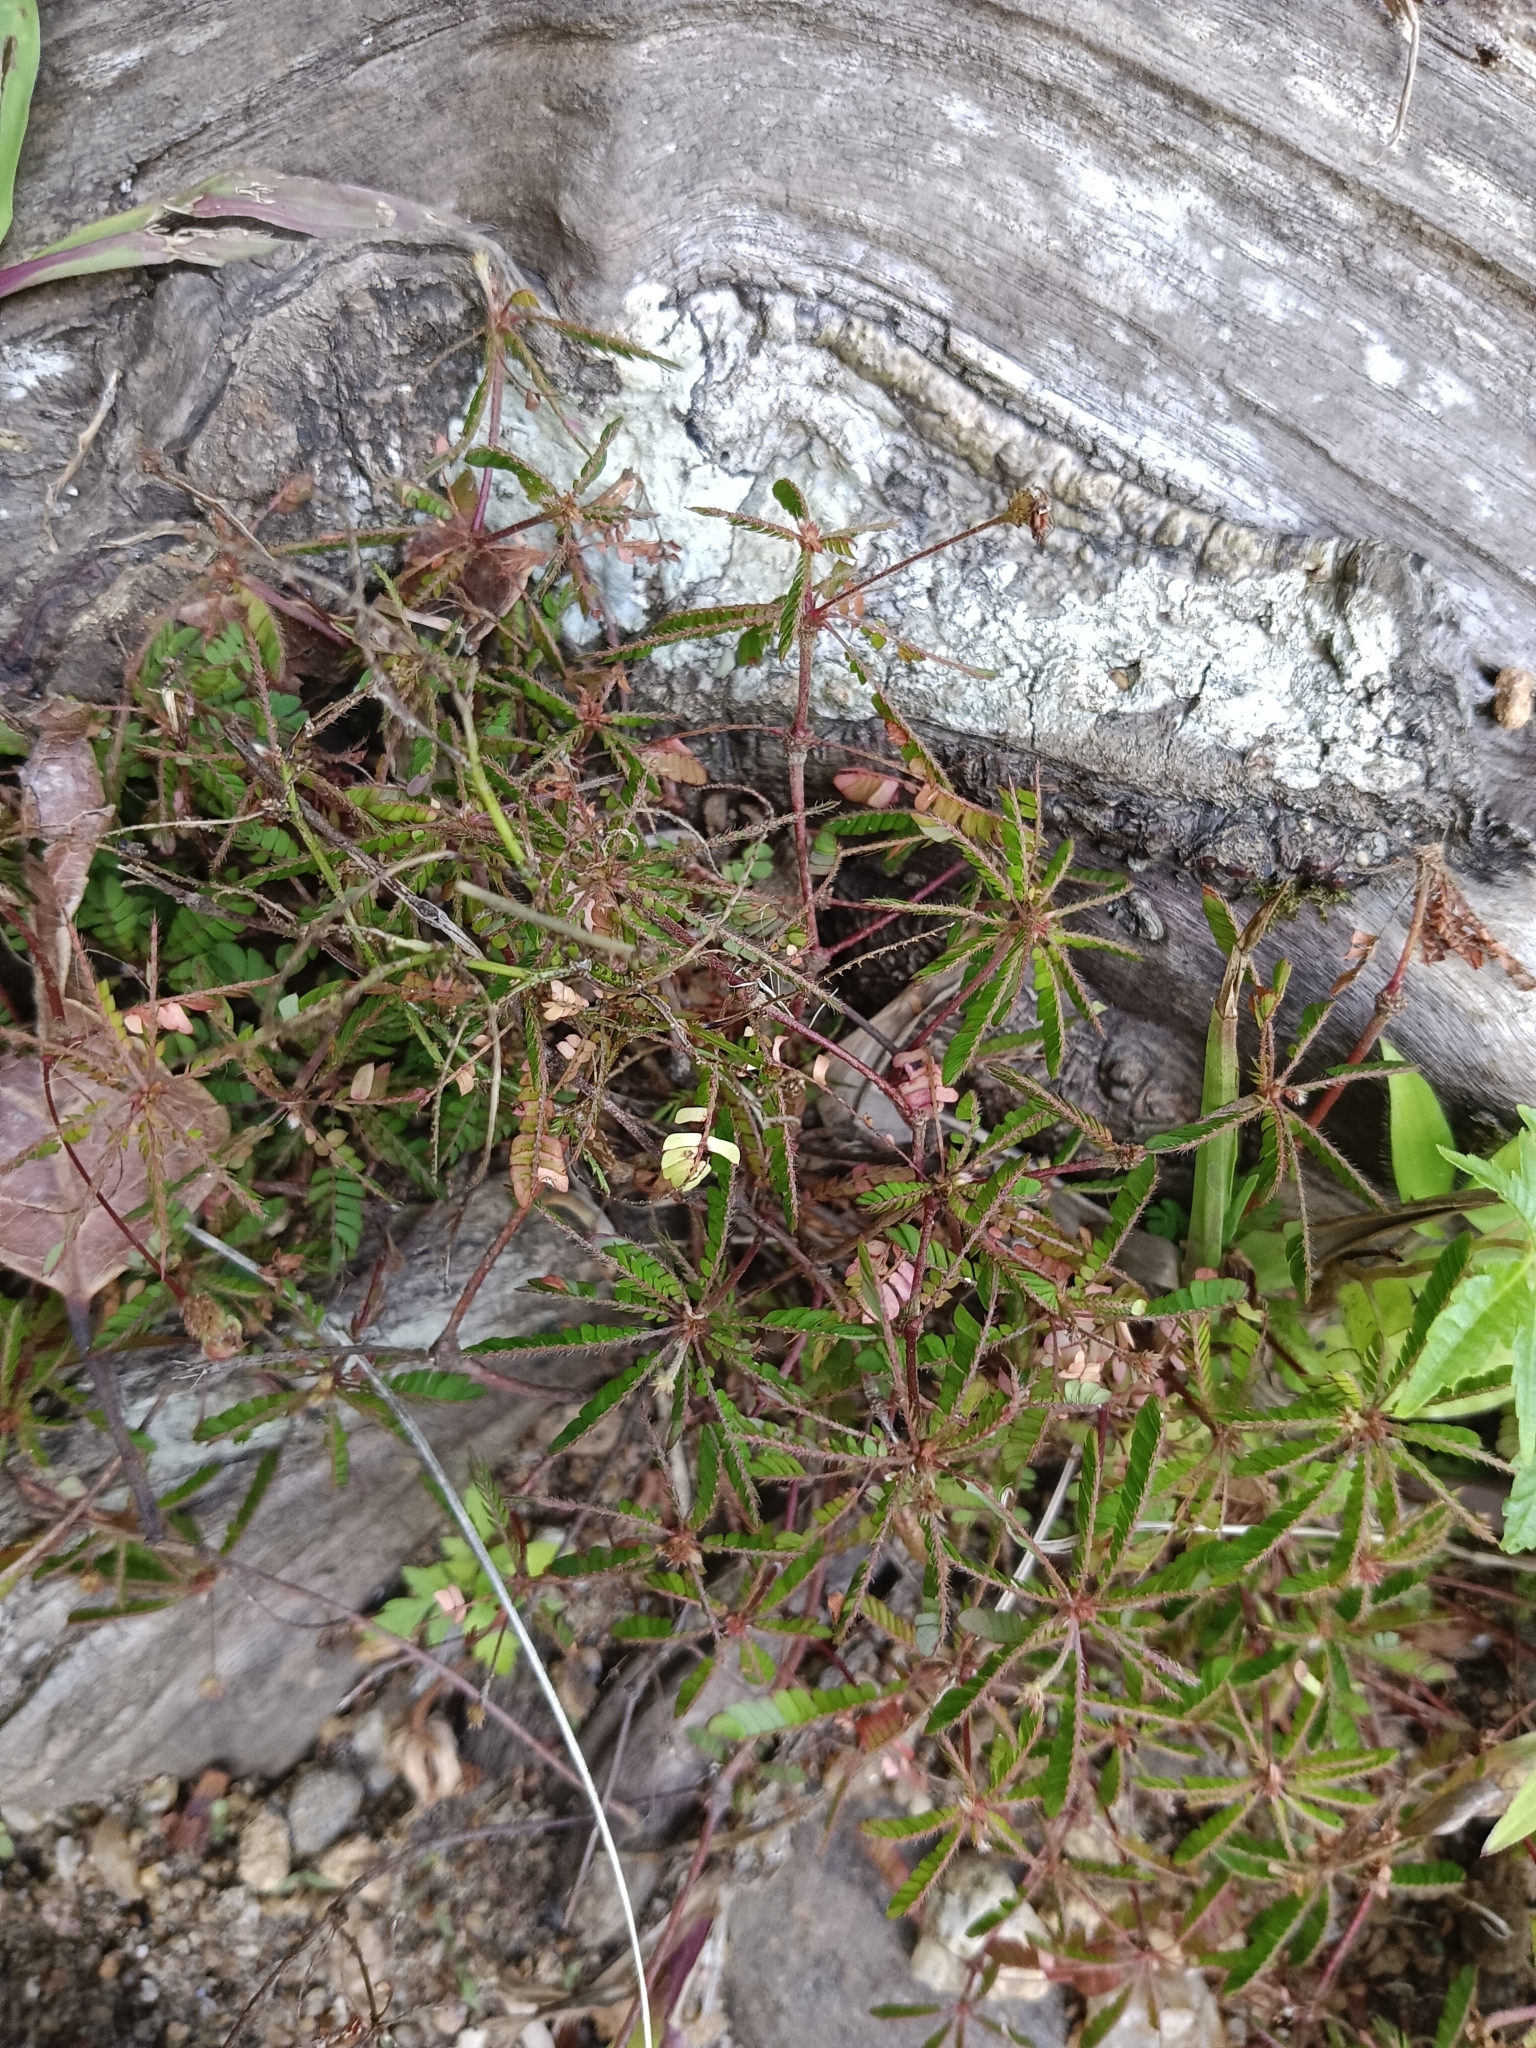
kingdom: Plantae
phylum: Tracheophyta
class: Magnoliopsida
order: Oxalidales
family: Oxalidaceae
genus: Biophytum
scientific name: Biophytum sensitivum
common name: Lifeplant
